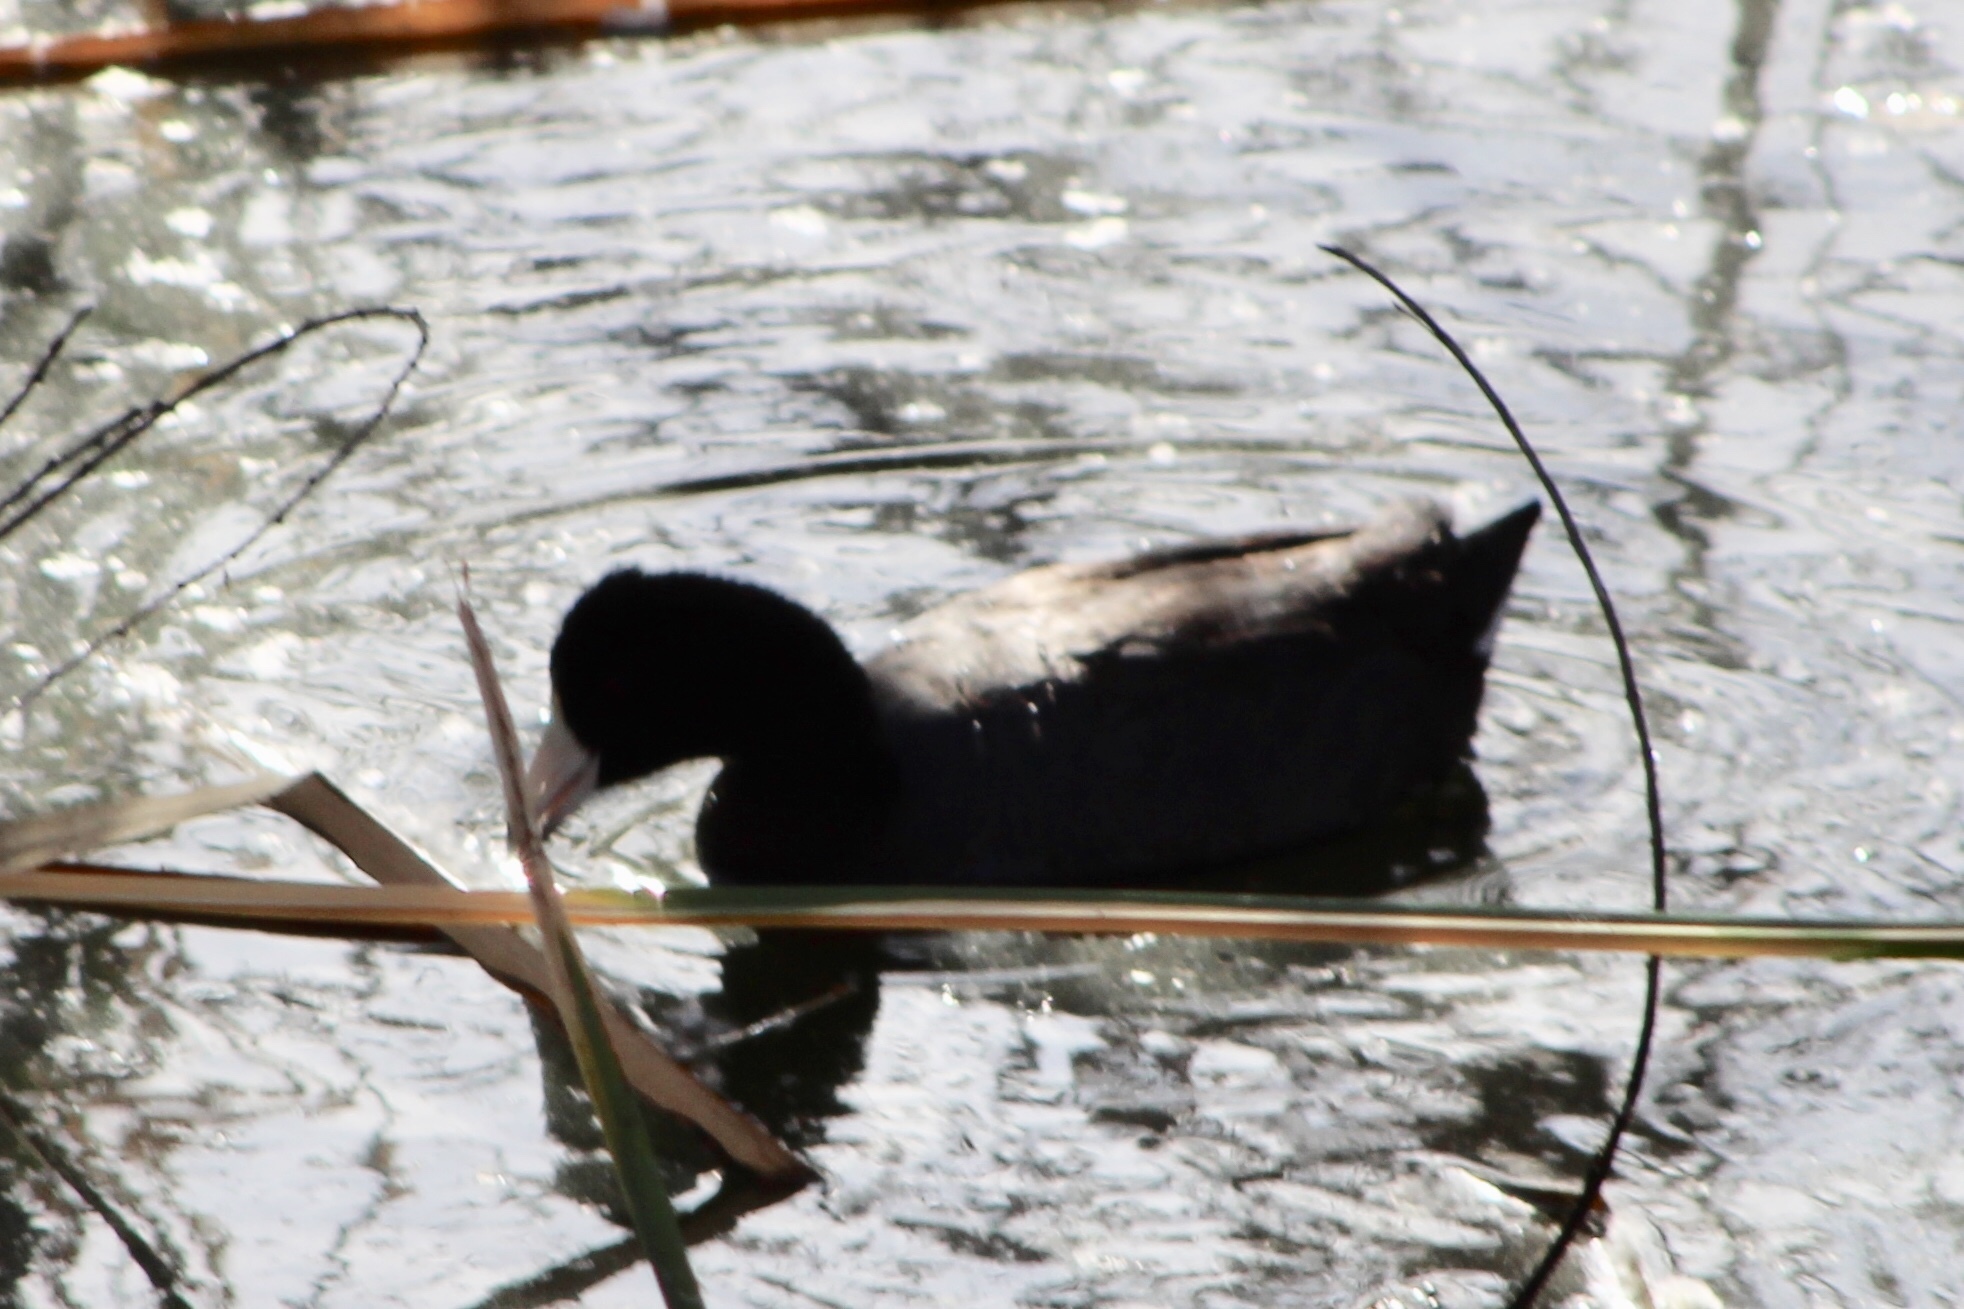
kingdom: Animalia
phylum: Chordata
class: Aves
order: Gruiformes
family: Rallidae
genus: Fulica
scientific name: Fulica americana
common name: American coot
